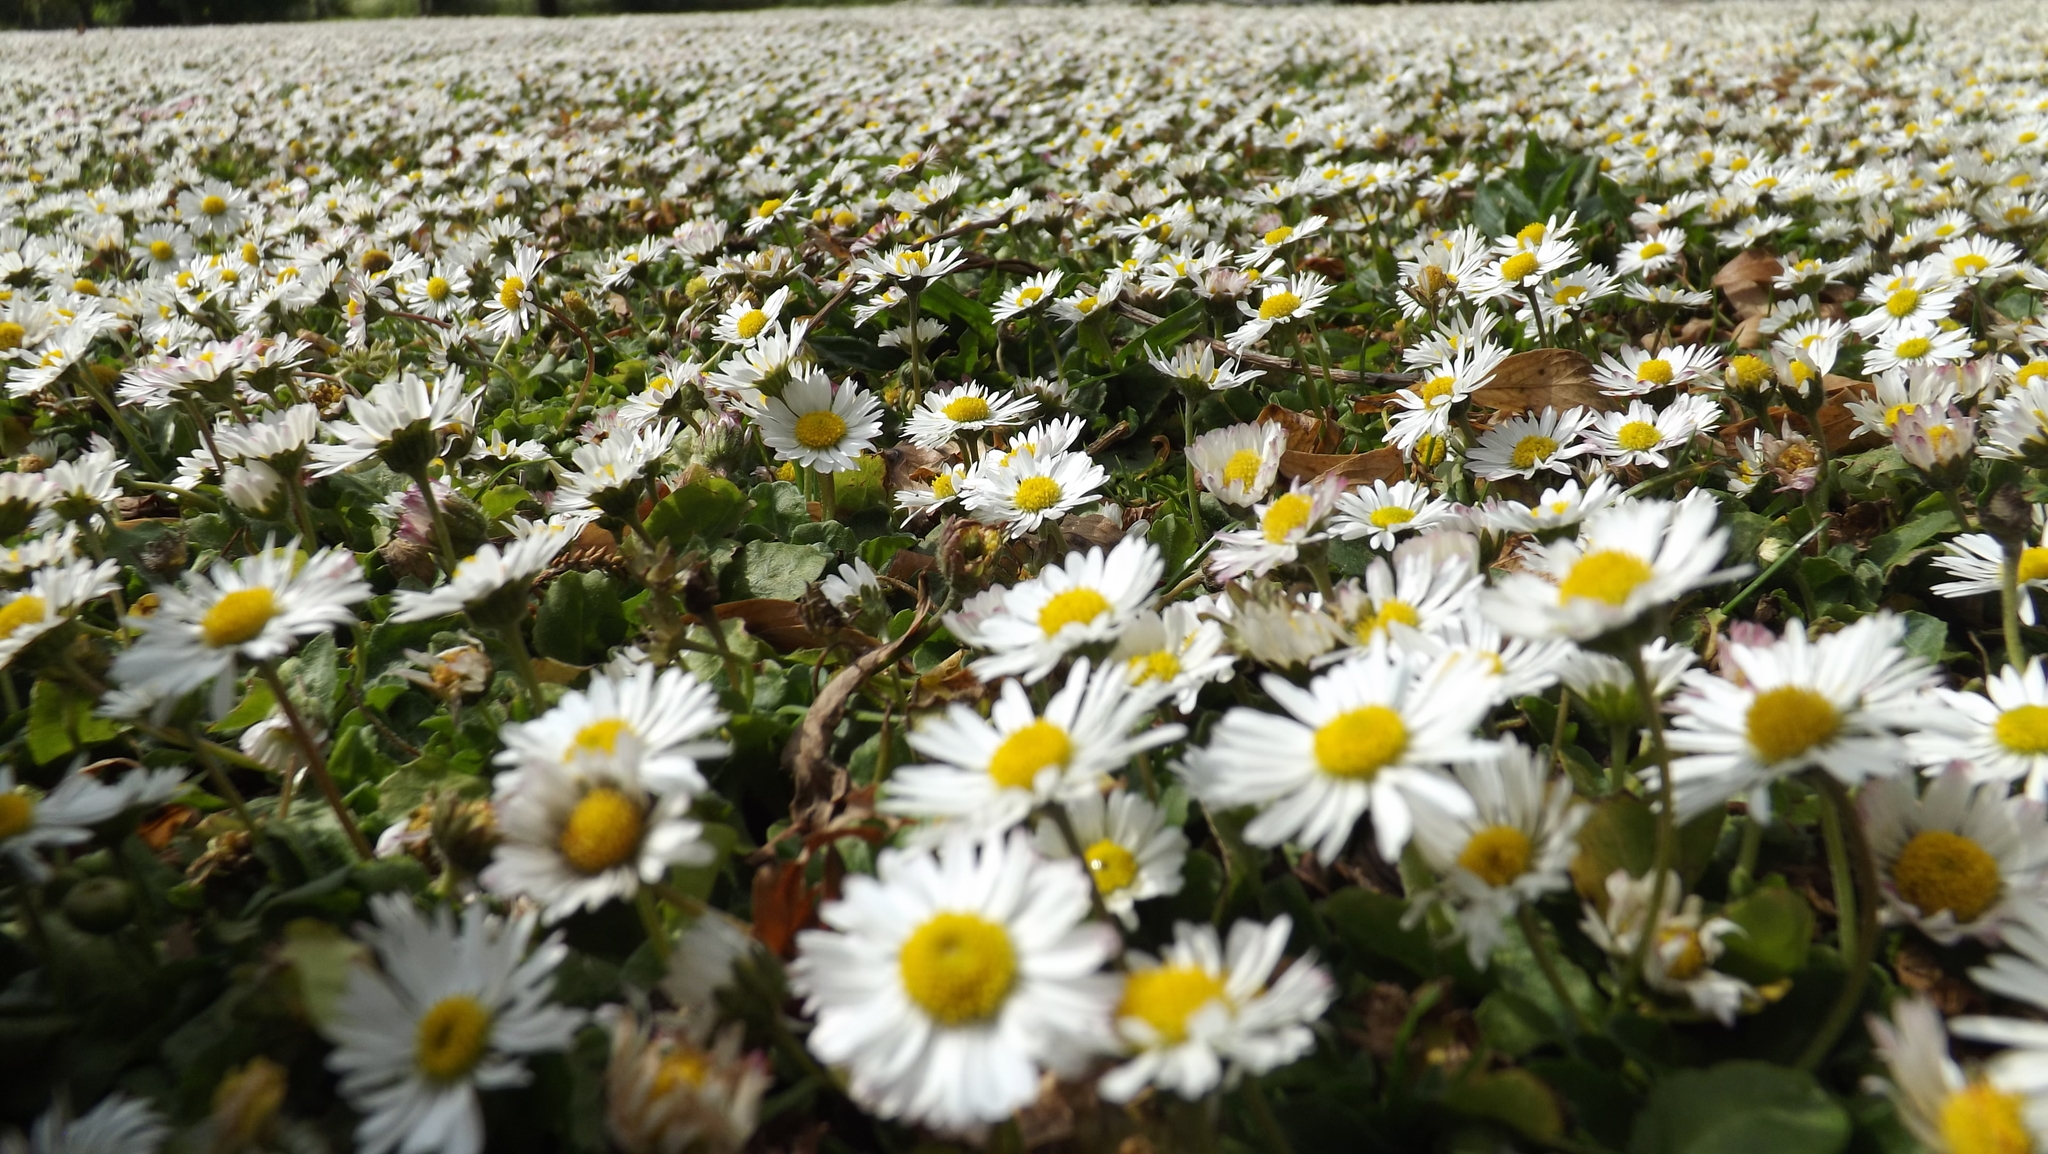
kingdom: Plantae
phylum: Tracheophyta
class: Magnoliopsida
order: Asterales
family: Asteraceae
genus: Bellis
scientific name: Bellis perennis
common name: Lawndaisy
